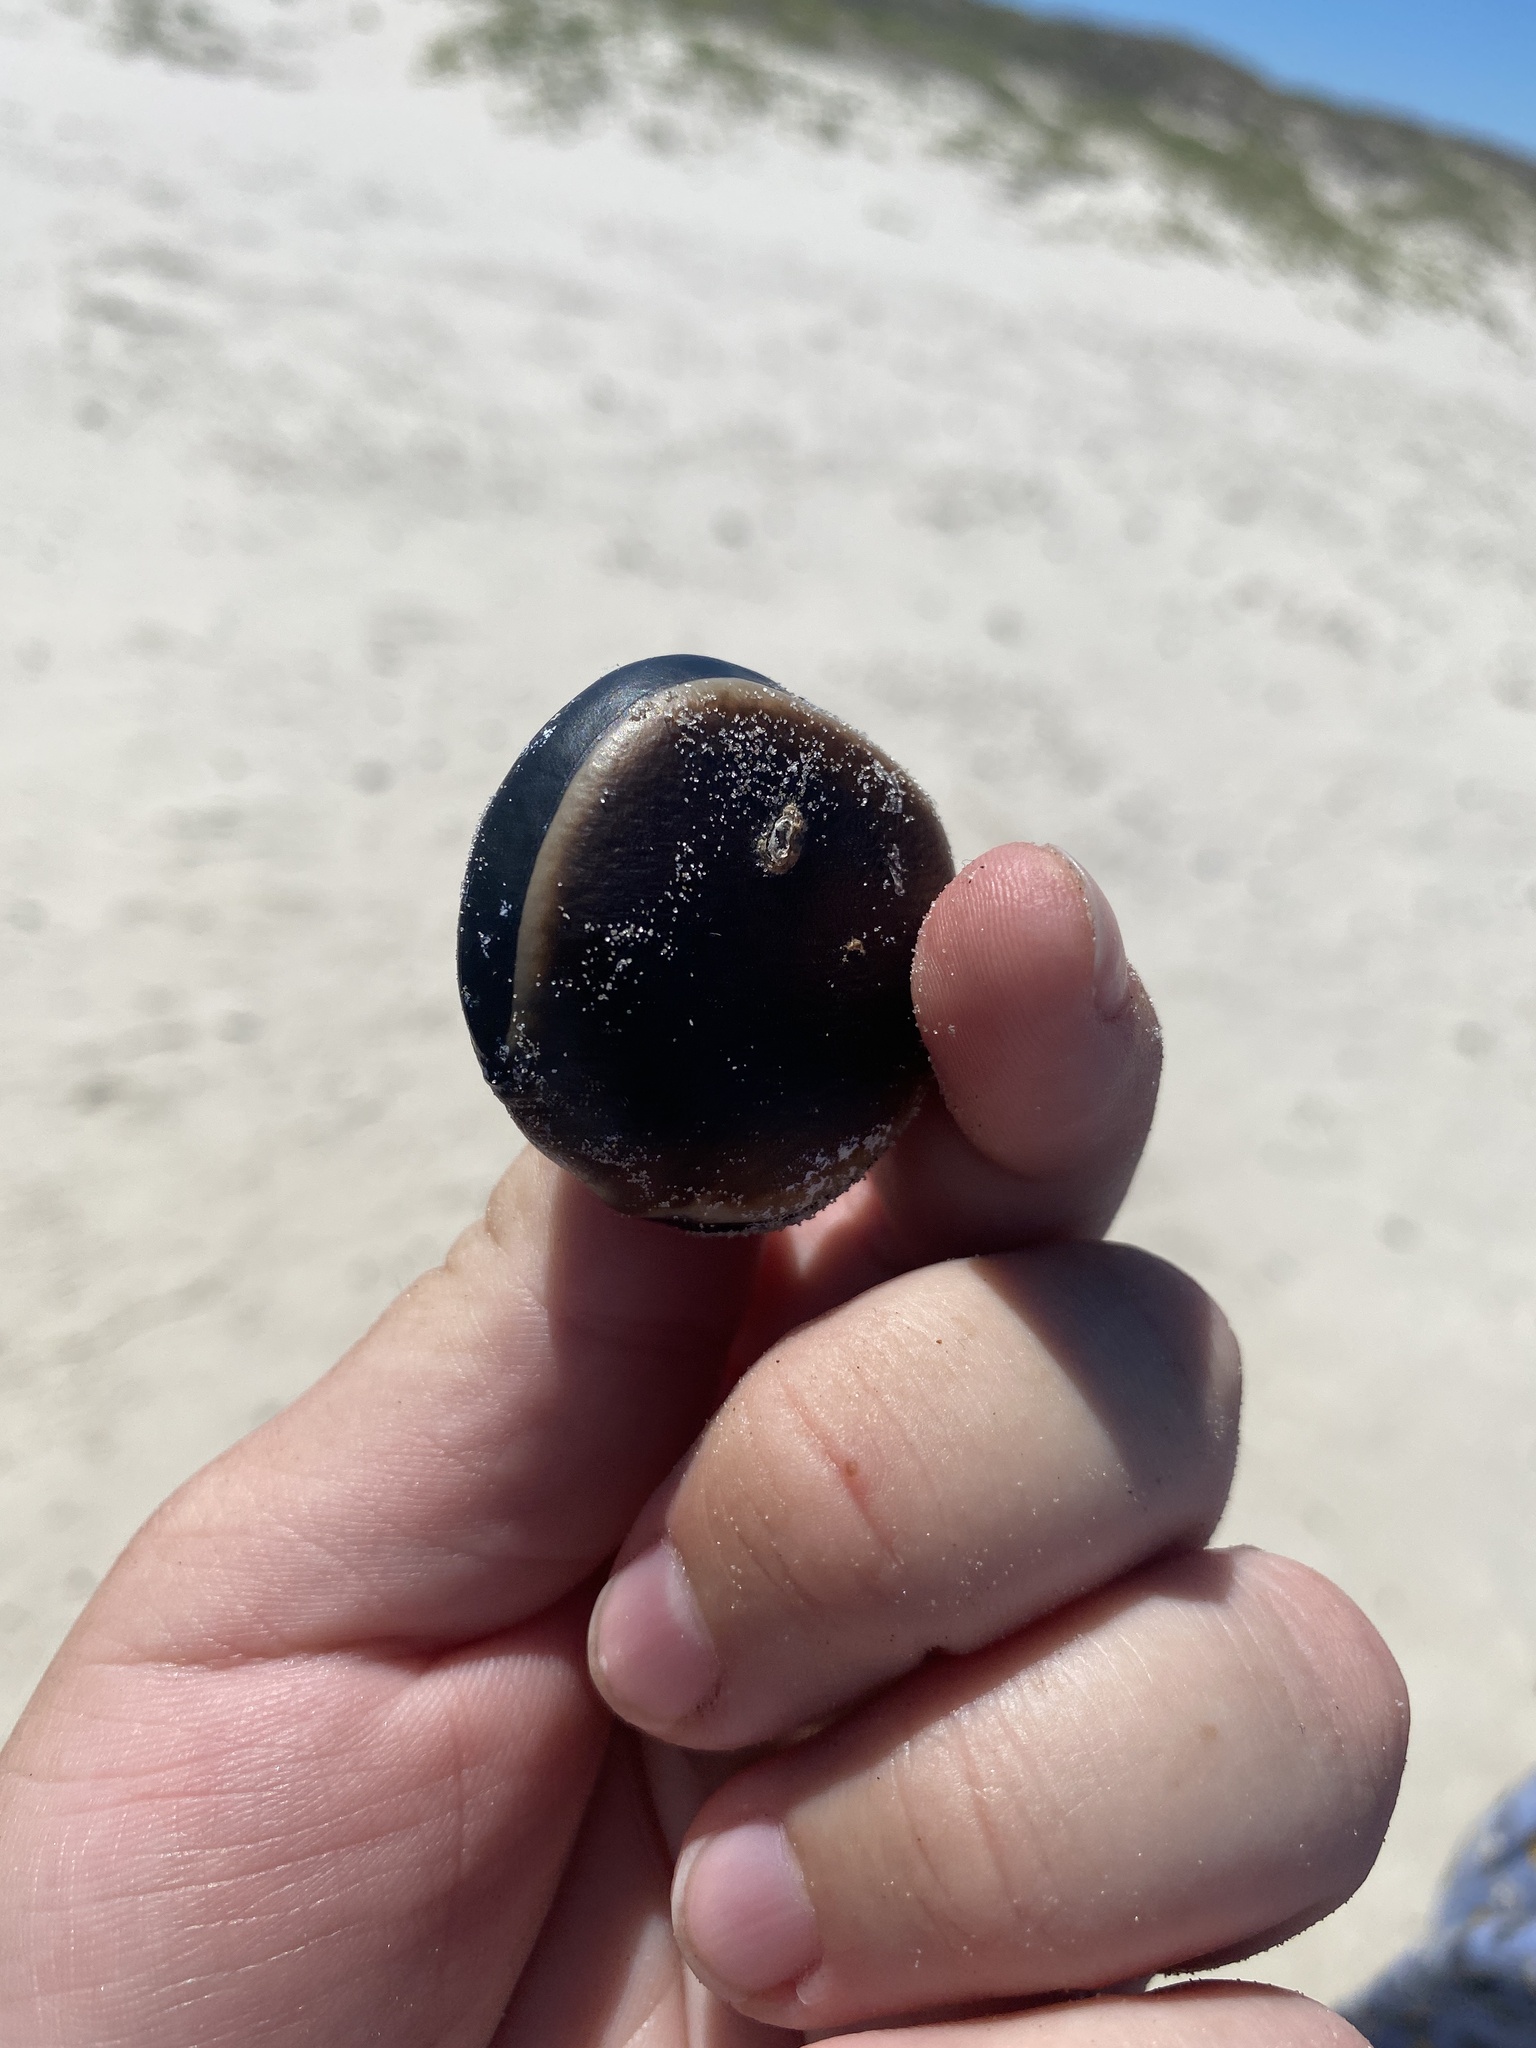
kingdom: Plantae
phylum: Tracheophyta
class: Magnoliopsida
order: Fabales
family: Fabaceae
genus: Mucuna
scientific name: Mucuna elliptica
